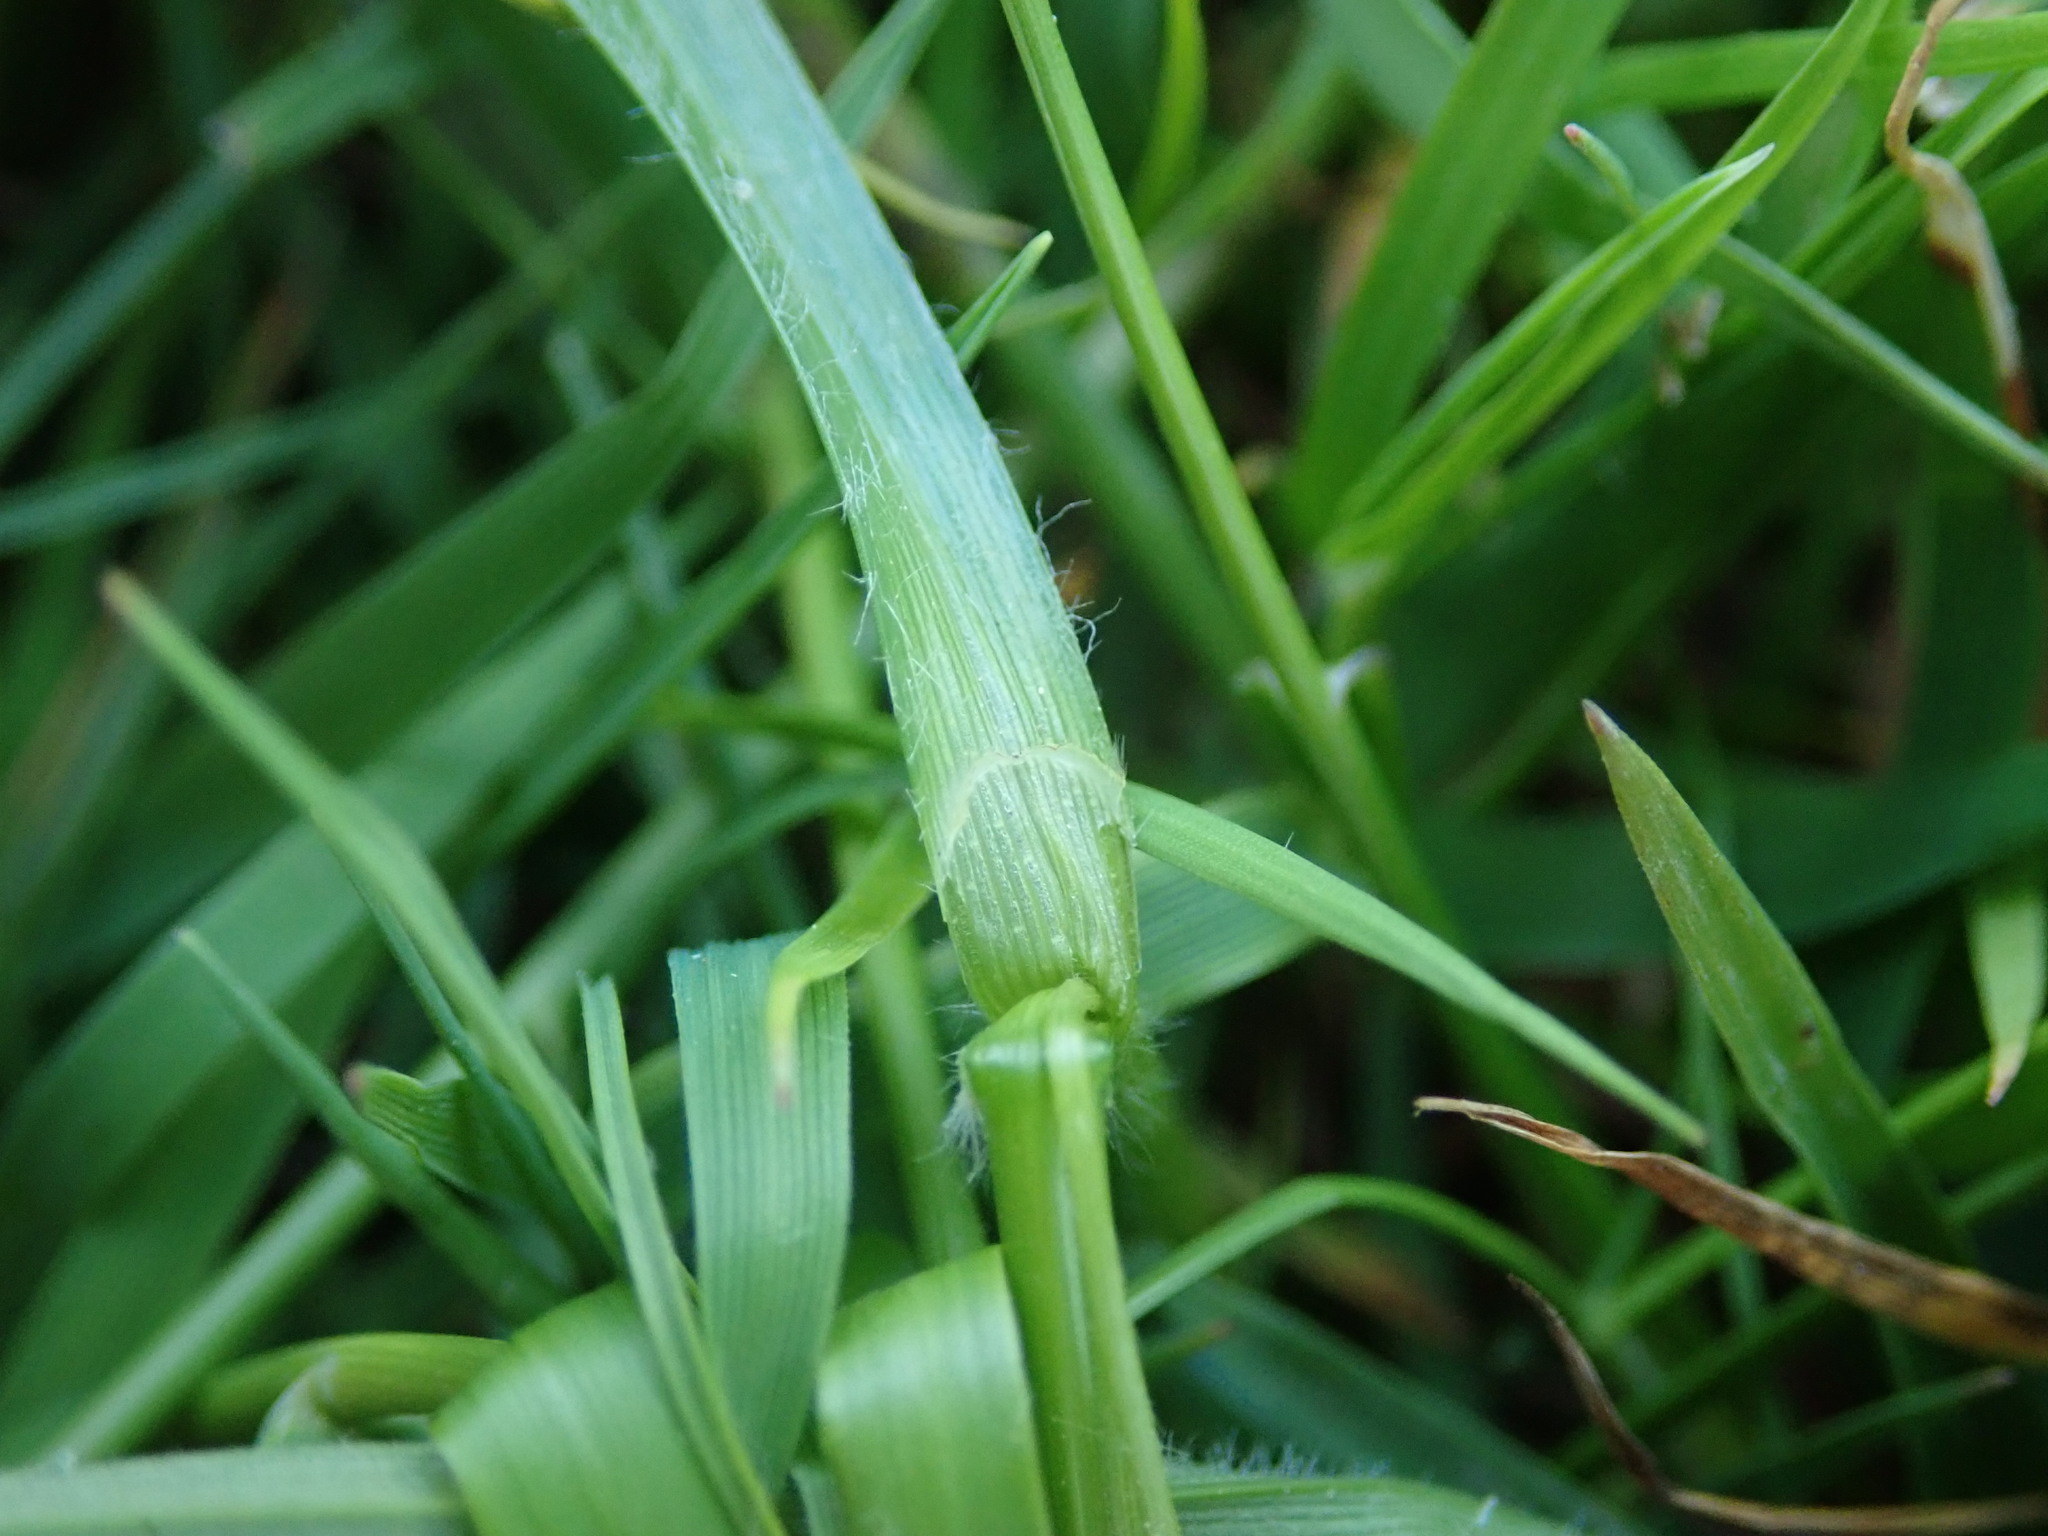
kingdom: Plantae
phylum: Tracheophyta
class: Liliopsida
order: Poales
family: Cyperaceae
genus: Carex
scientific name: Carex hirta
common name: Hairy sedge
